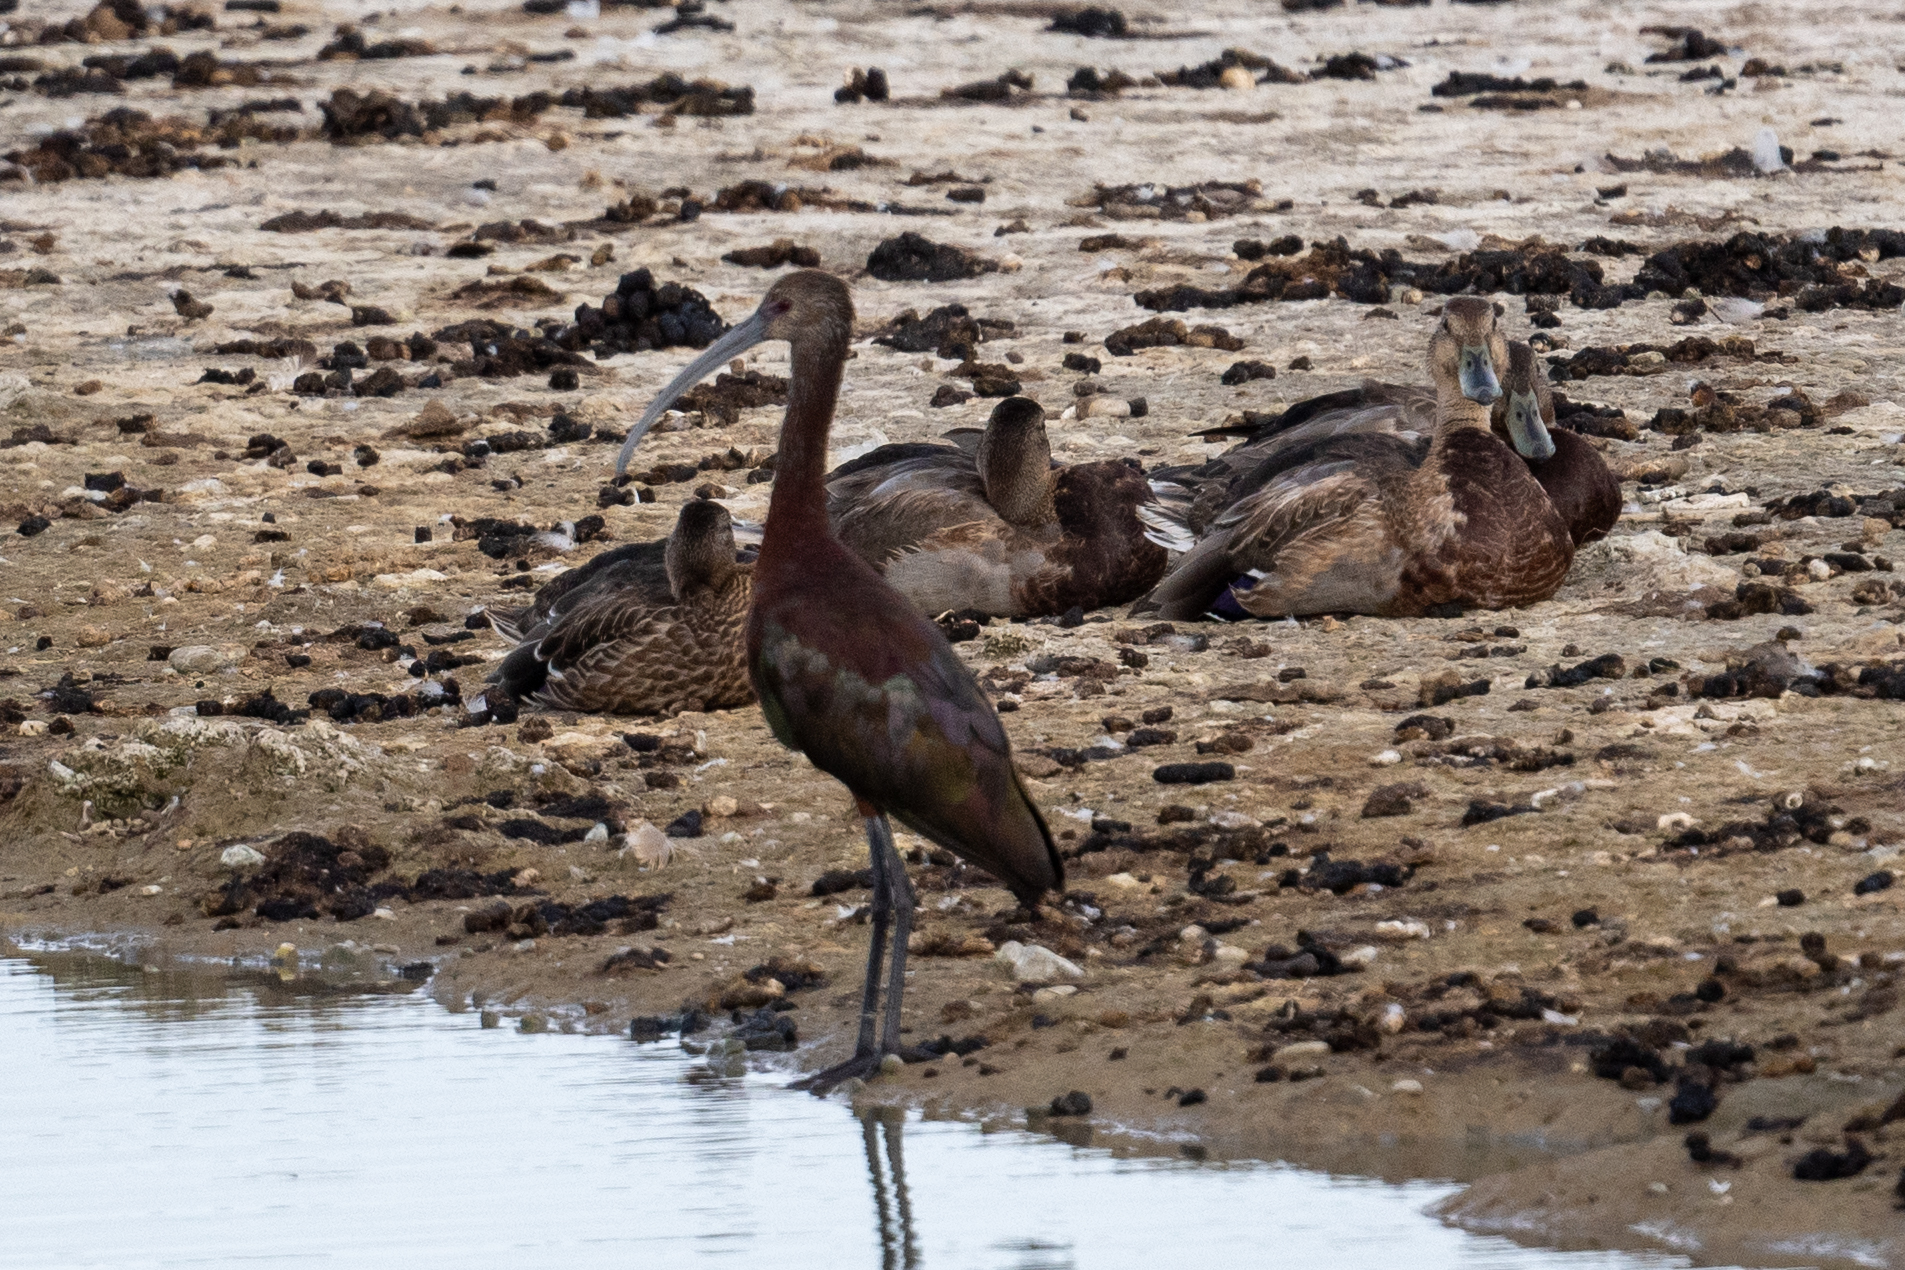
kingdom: Animalia
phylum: Chordata
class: Aves
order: Pelecaniformes
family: Threskiornithidae
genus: Plegadis
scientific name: Plegadis chihi
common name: White-faced ibis
